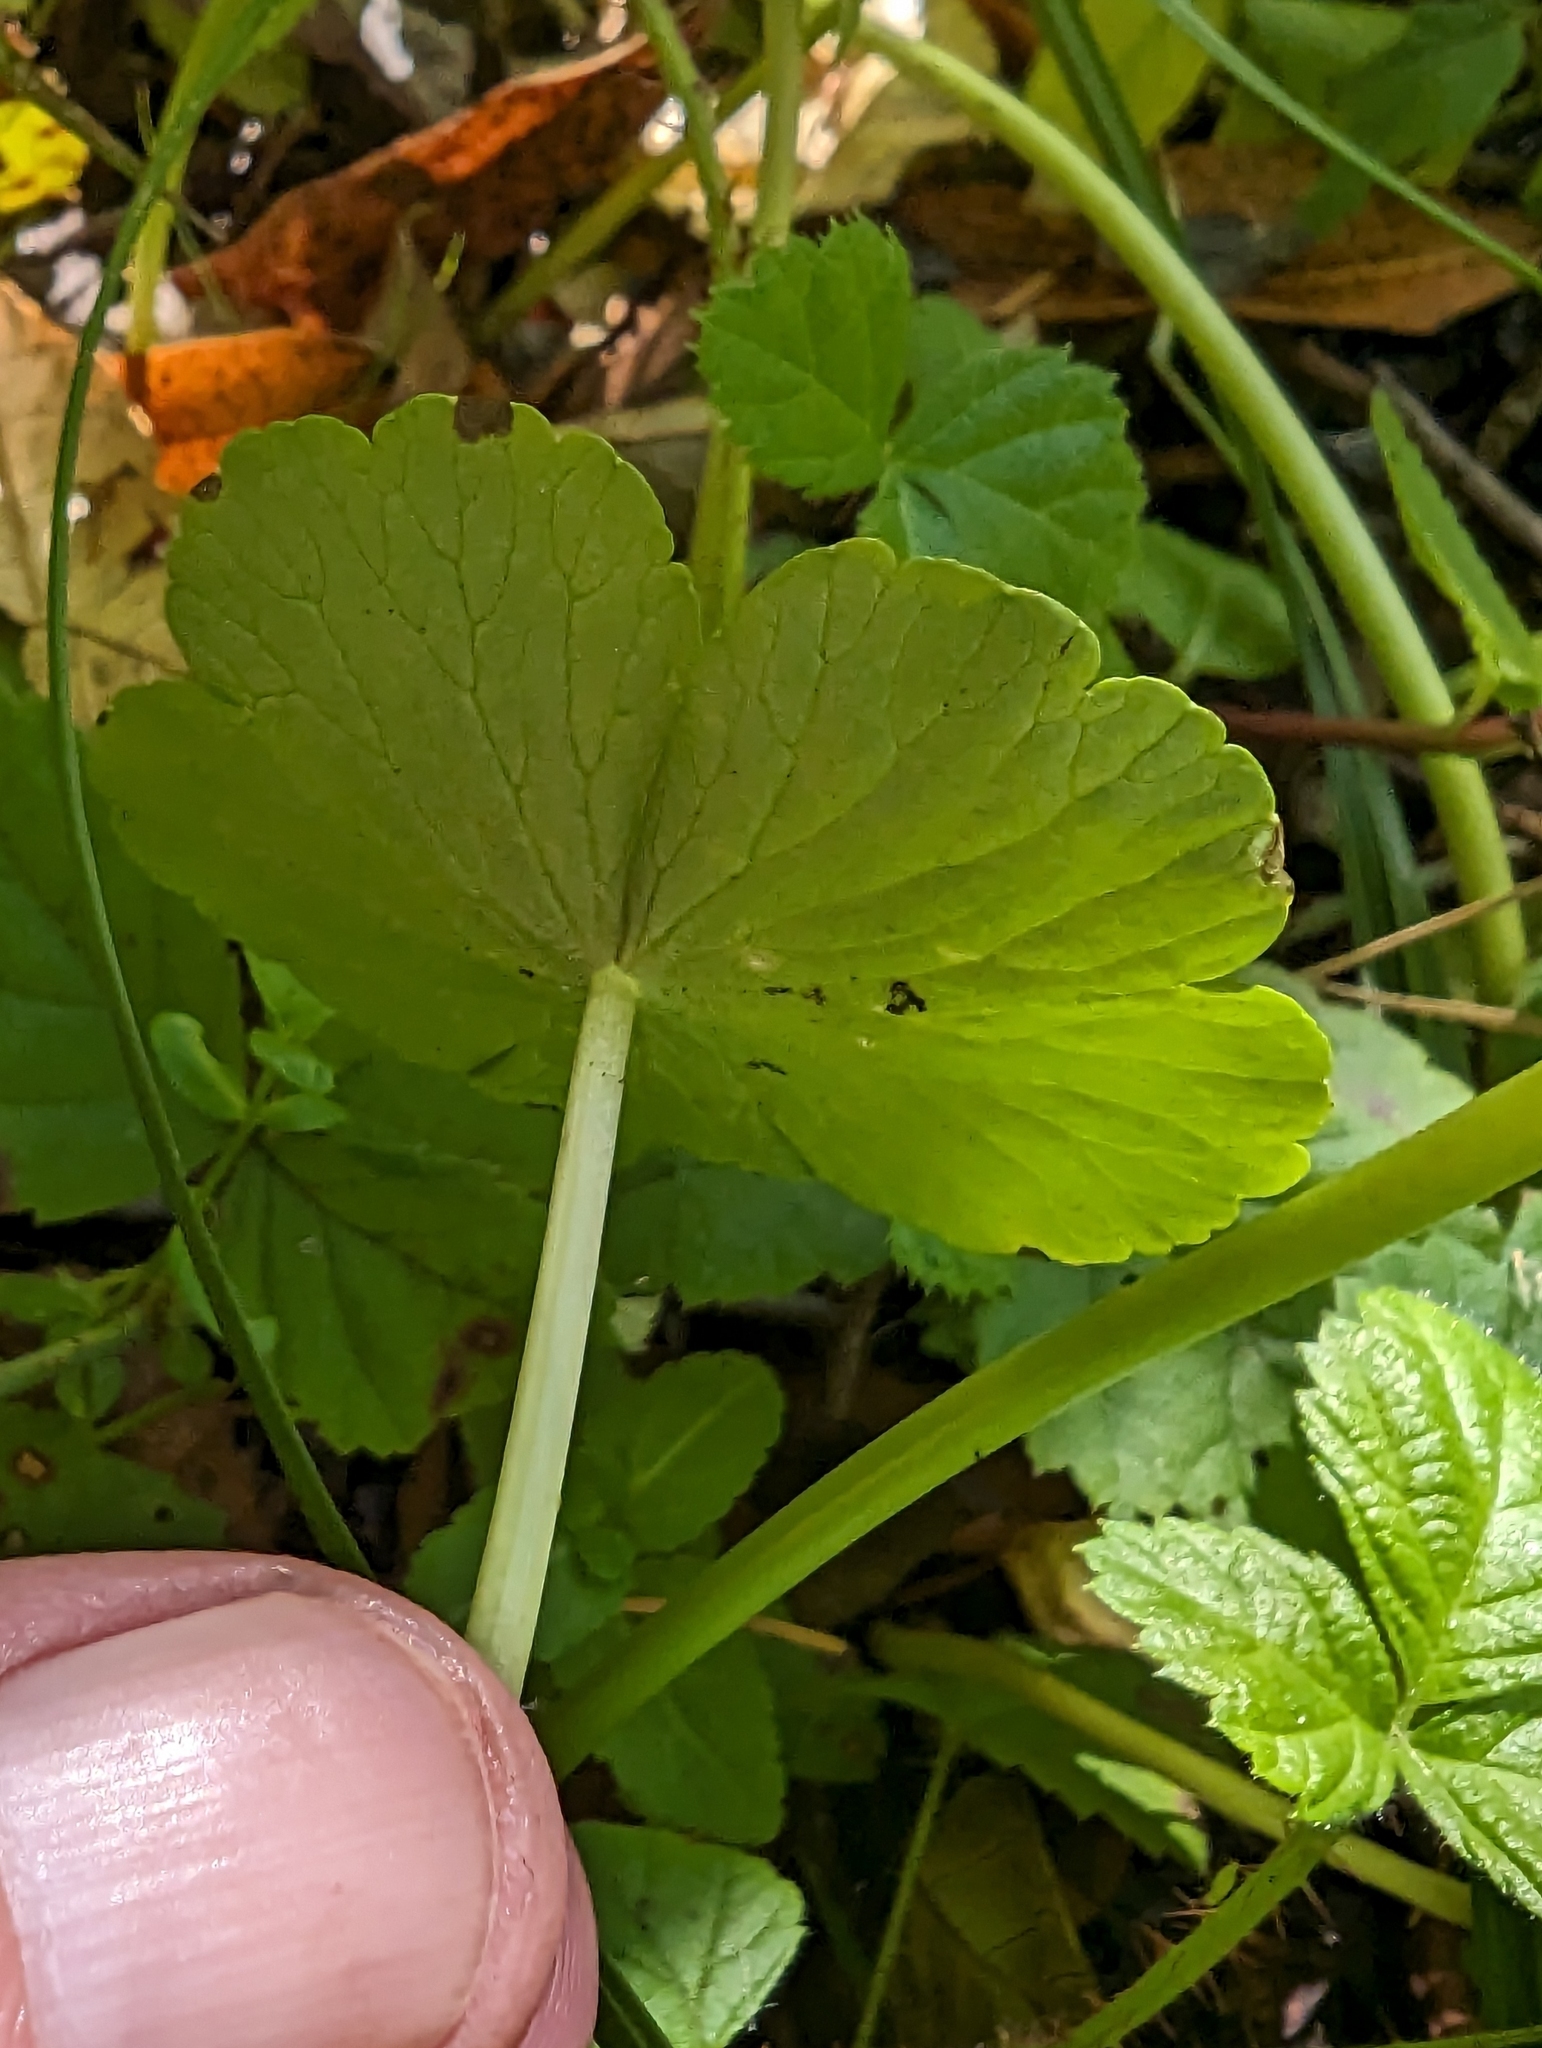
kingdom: Plantae
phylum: Tracheophyta
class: Magnoliopsida
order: Apiales
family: Araliaceae
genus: Hydrocotyle
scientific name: Hydrocotyle ranunculoides
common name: Floating pennywort
